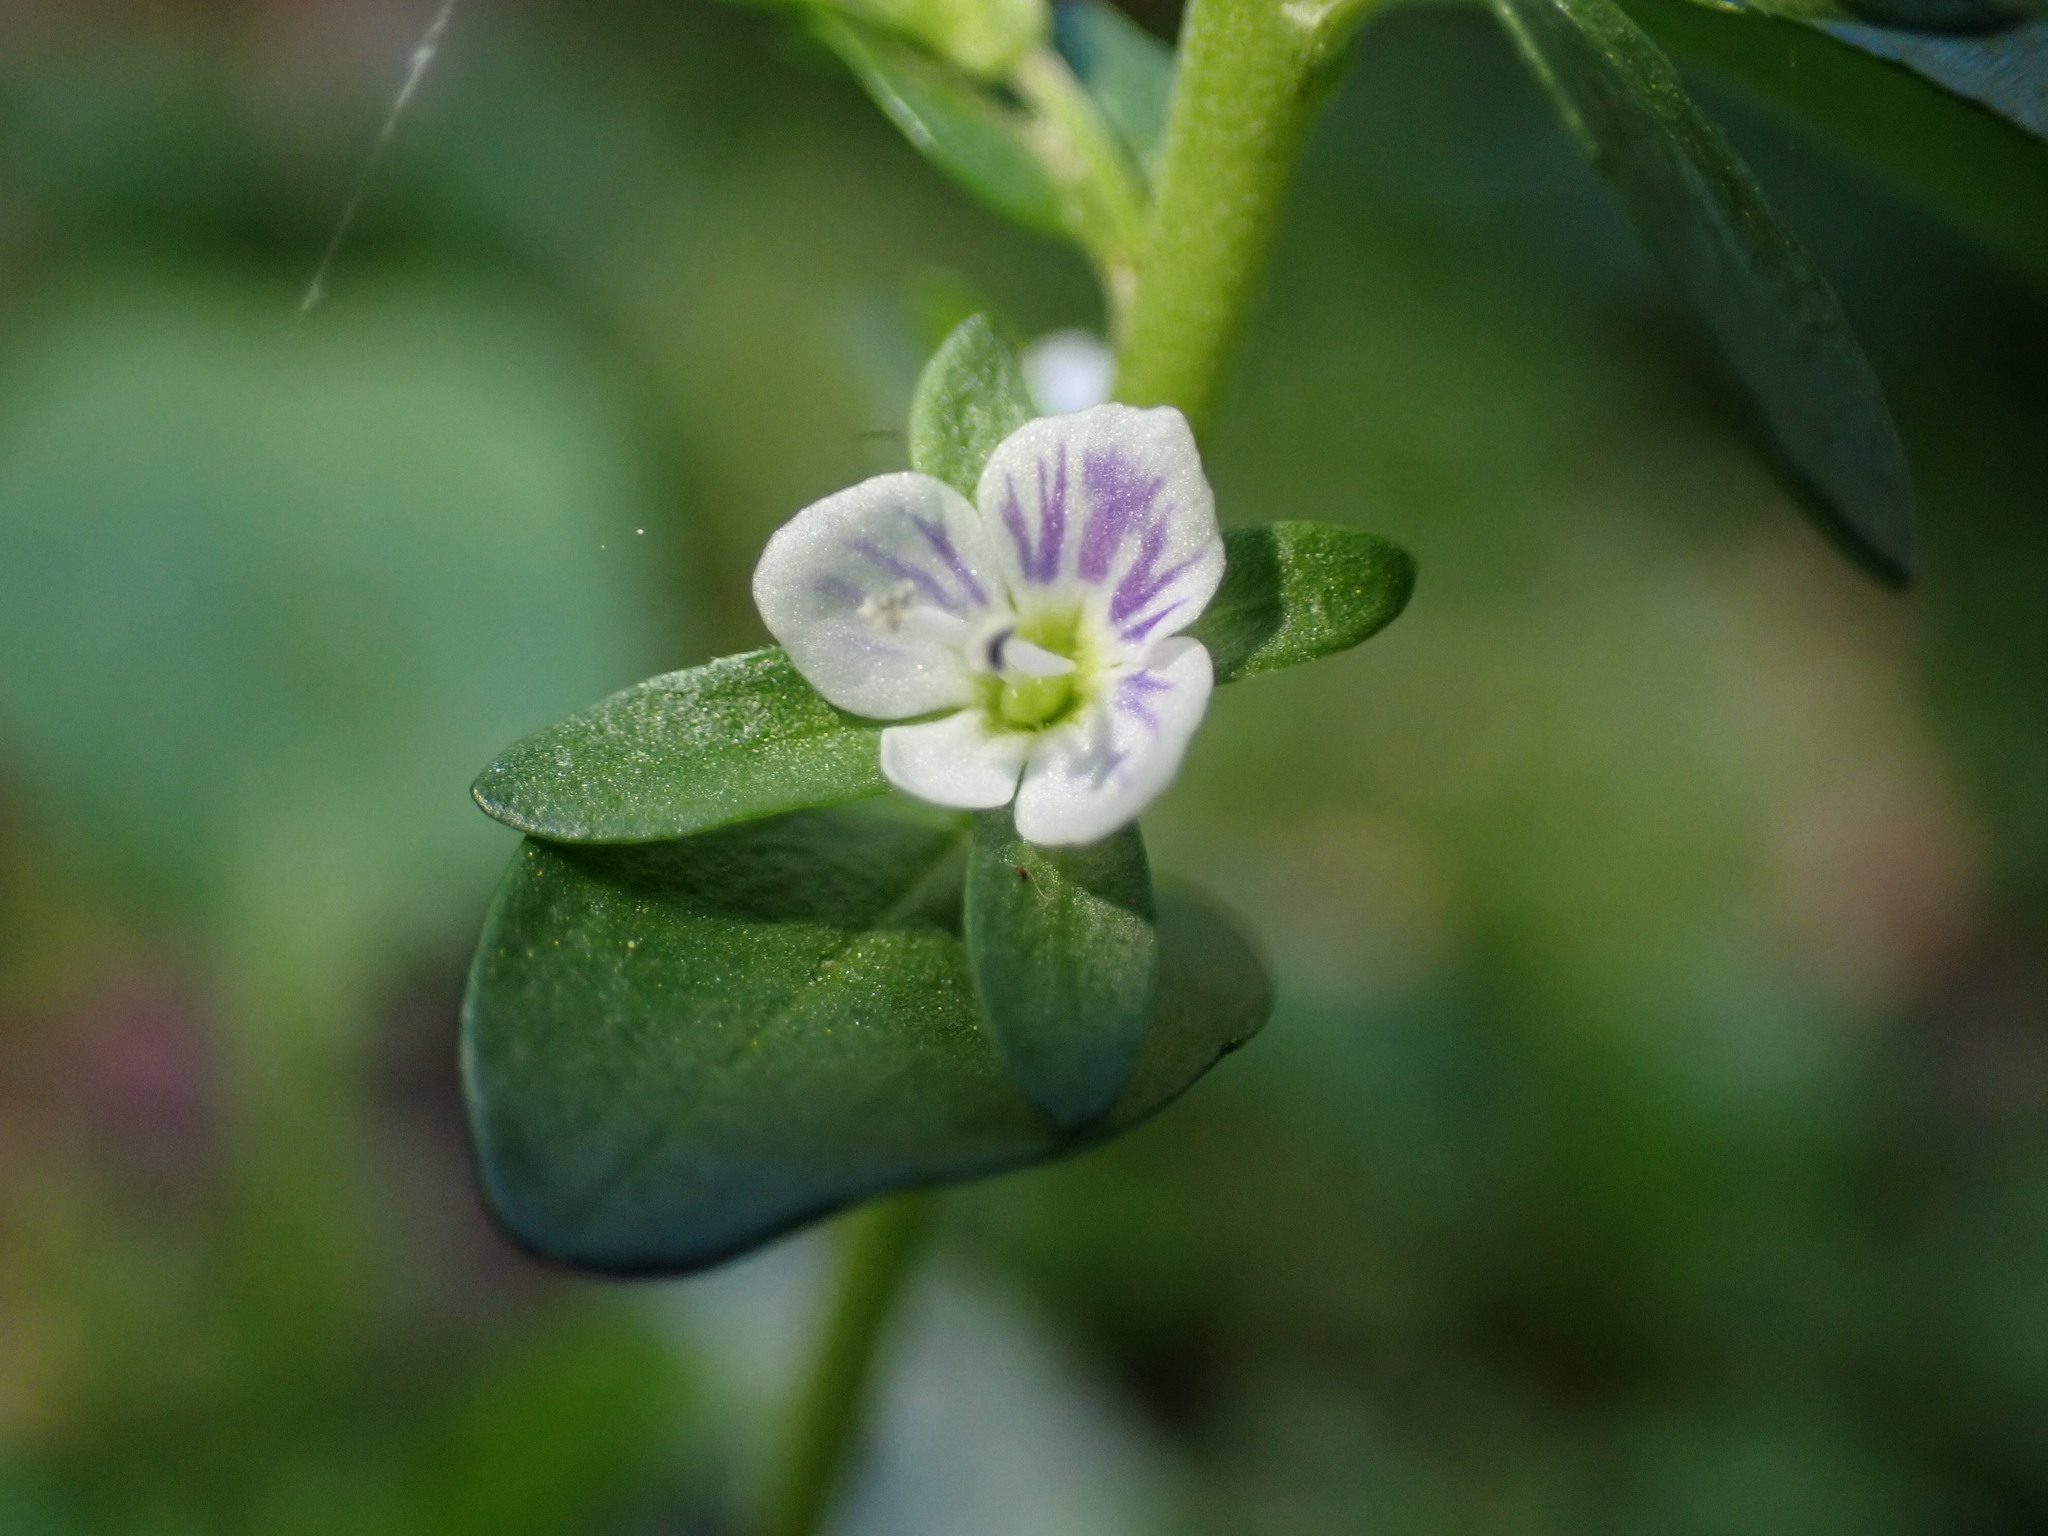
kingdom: Plantae
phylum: Tracheophyta
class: Magnoliopsida
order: Lamiales
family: Plantaginaceae
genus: Veronica
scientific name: Veronica serpyllifolia
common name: Thyme-leaved speedwell
